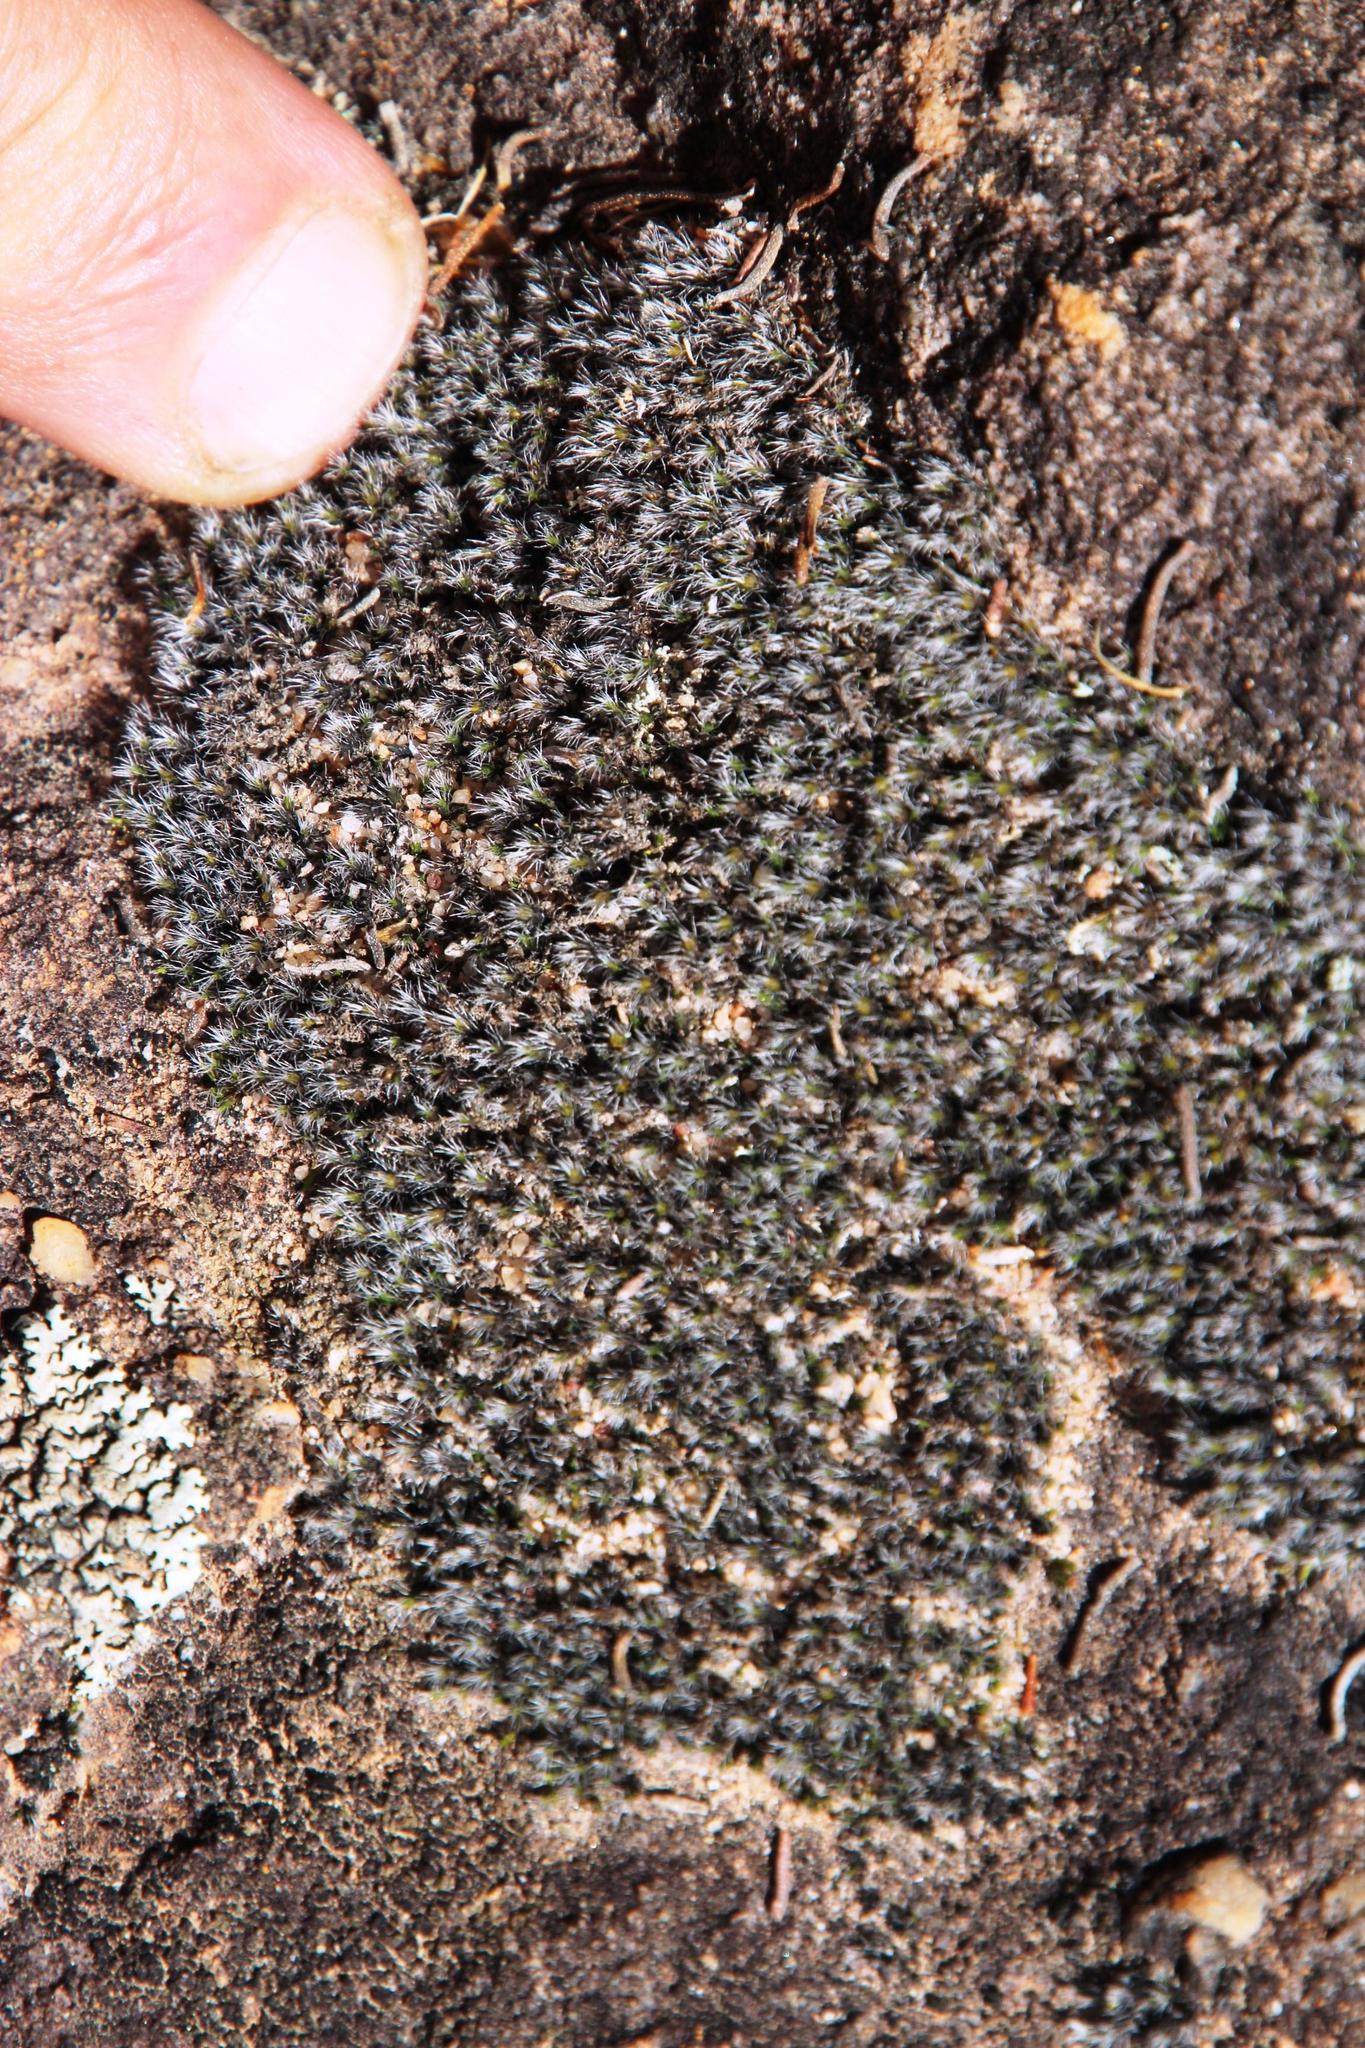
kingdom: Plantae
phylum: Bryophyta
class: Bryopsida
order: Grimmiales
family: Grimmiaceae
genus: Grimmia
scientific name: Grimmia laevigata
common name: Hoary grimmia
